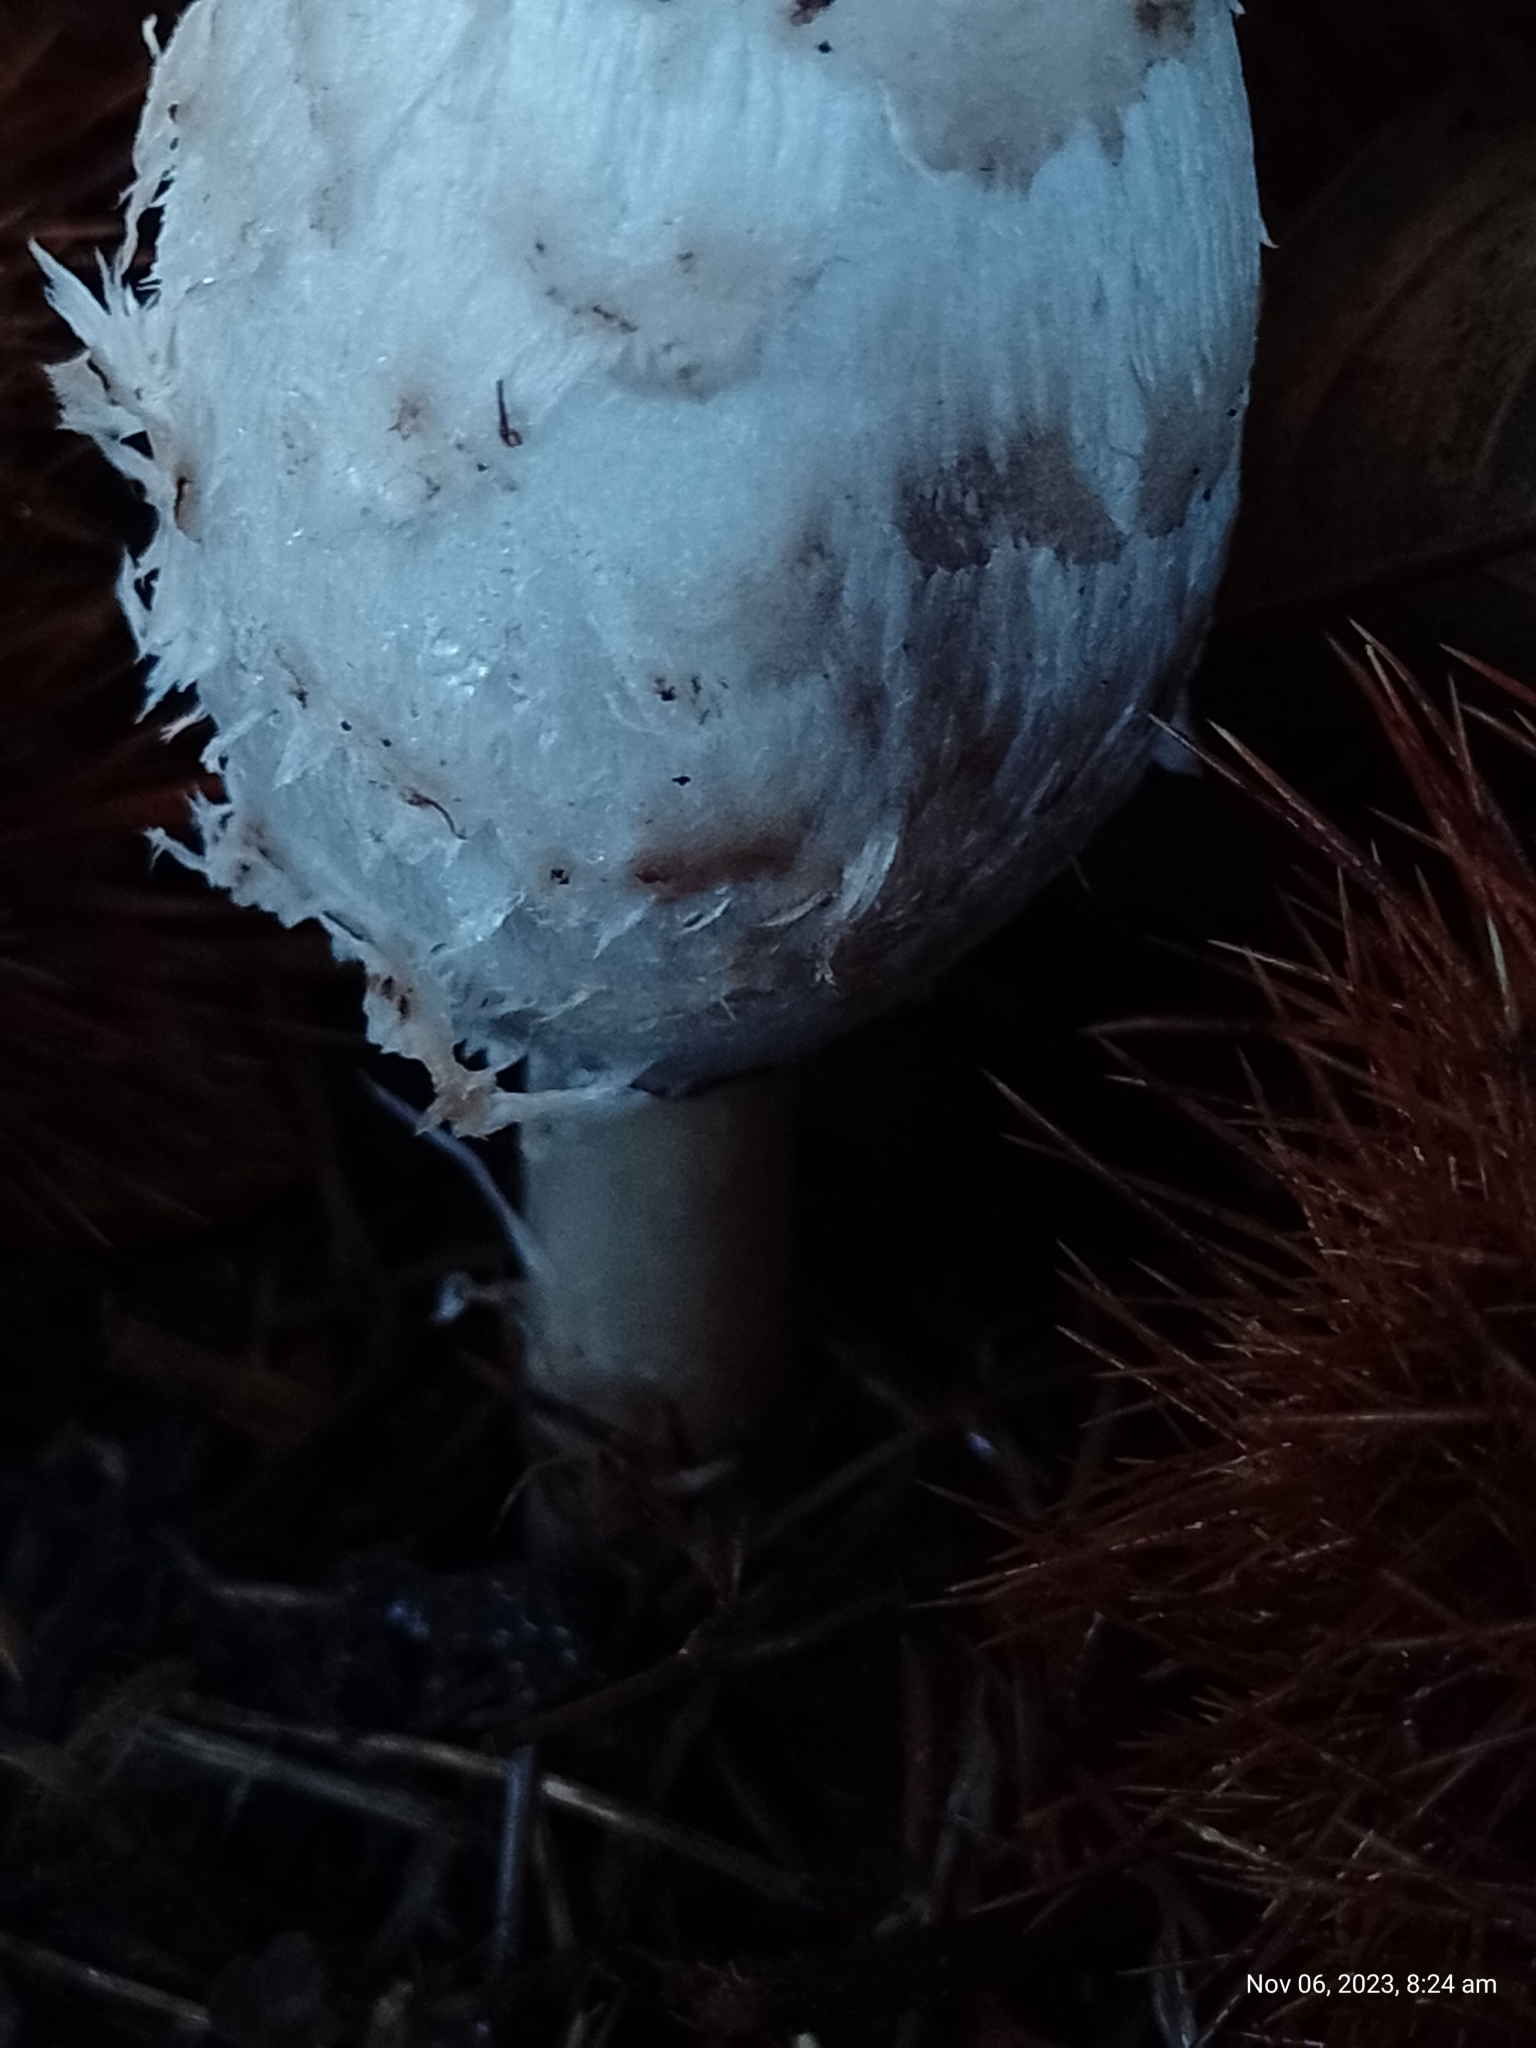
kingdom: Fungi
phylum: Basidiomycota
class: Agaricomycetes
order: Agaricales
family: Agaricaceae
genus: Coprinus
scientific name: Coprinus comatus
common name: Lawyer's wig
